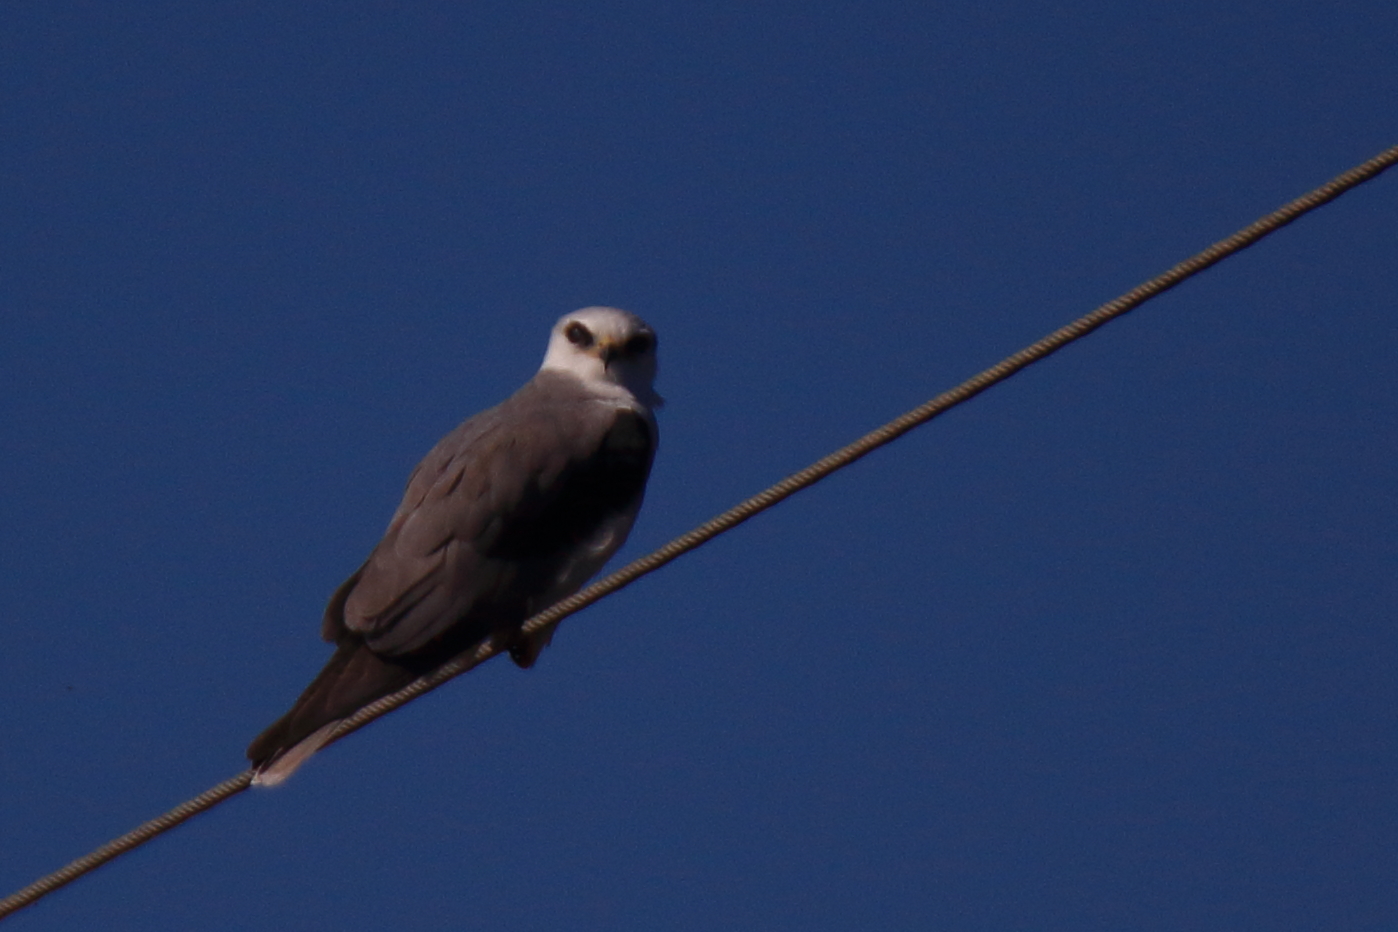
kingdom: Animalia
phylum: Chordata
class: Aves
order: Accipitriformes
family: Accipitridae
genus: Ictinia
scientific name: Ictinia mississippiensis
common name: Mississippi kite
